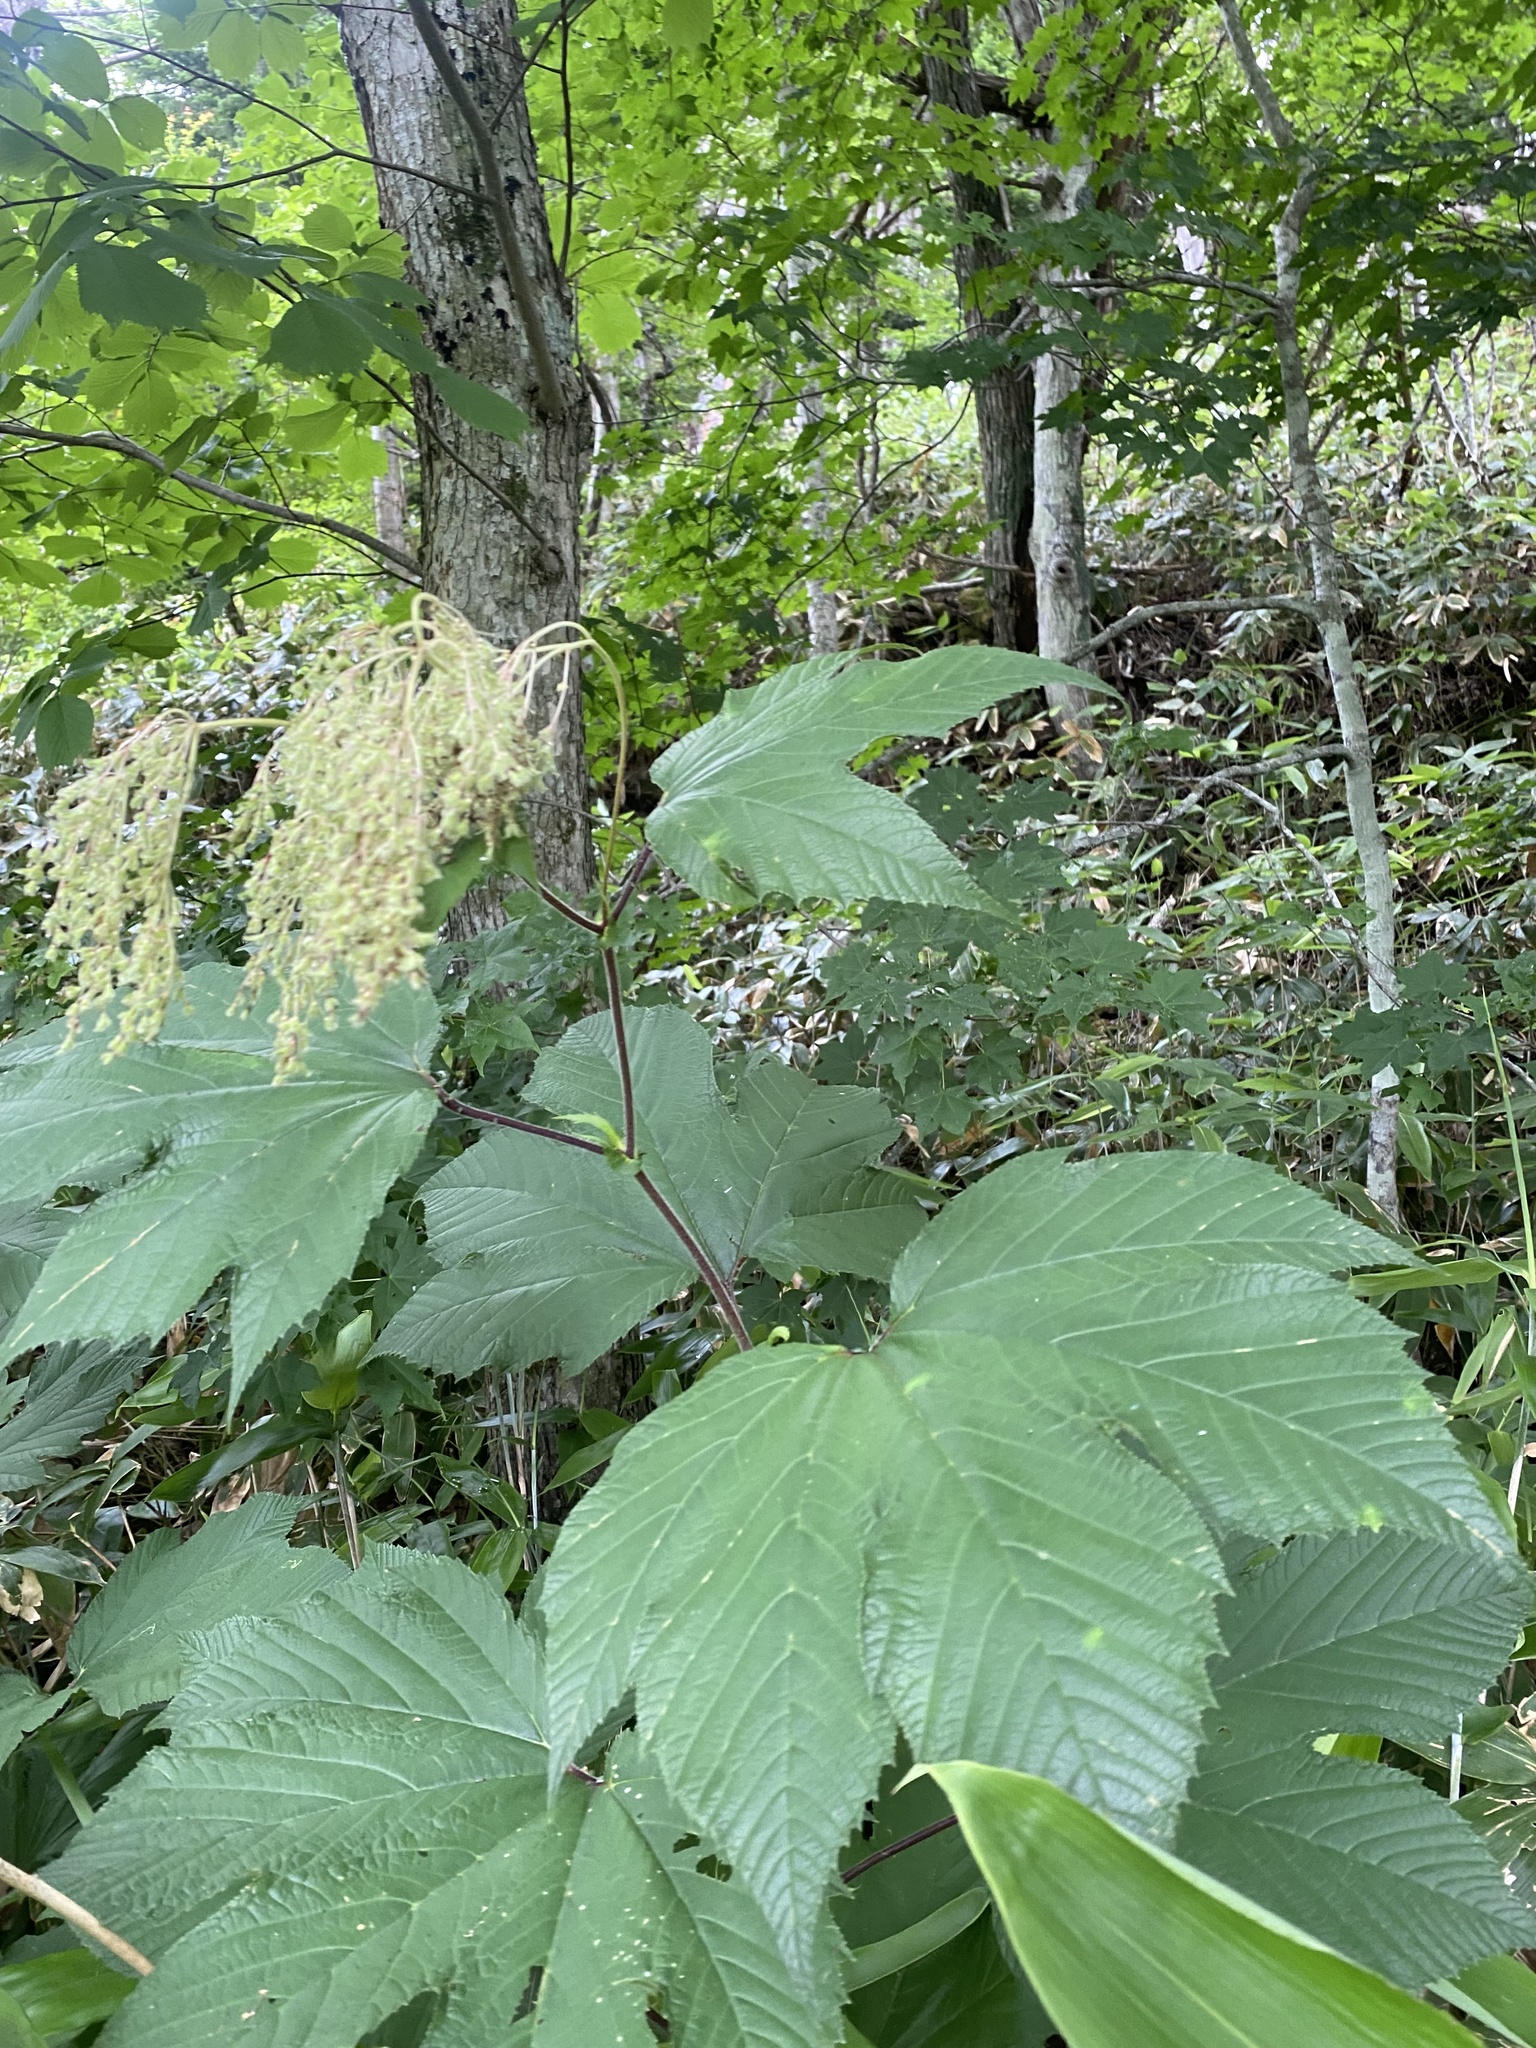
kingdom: Plantae
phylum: Tracheophyta
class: Magnoliopsida
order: Rosales
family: Rosaceae
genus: Filipendula
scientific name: Filipendula camtschatica
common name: Giant meadowsweet
